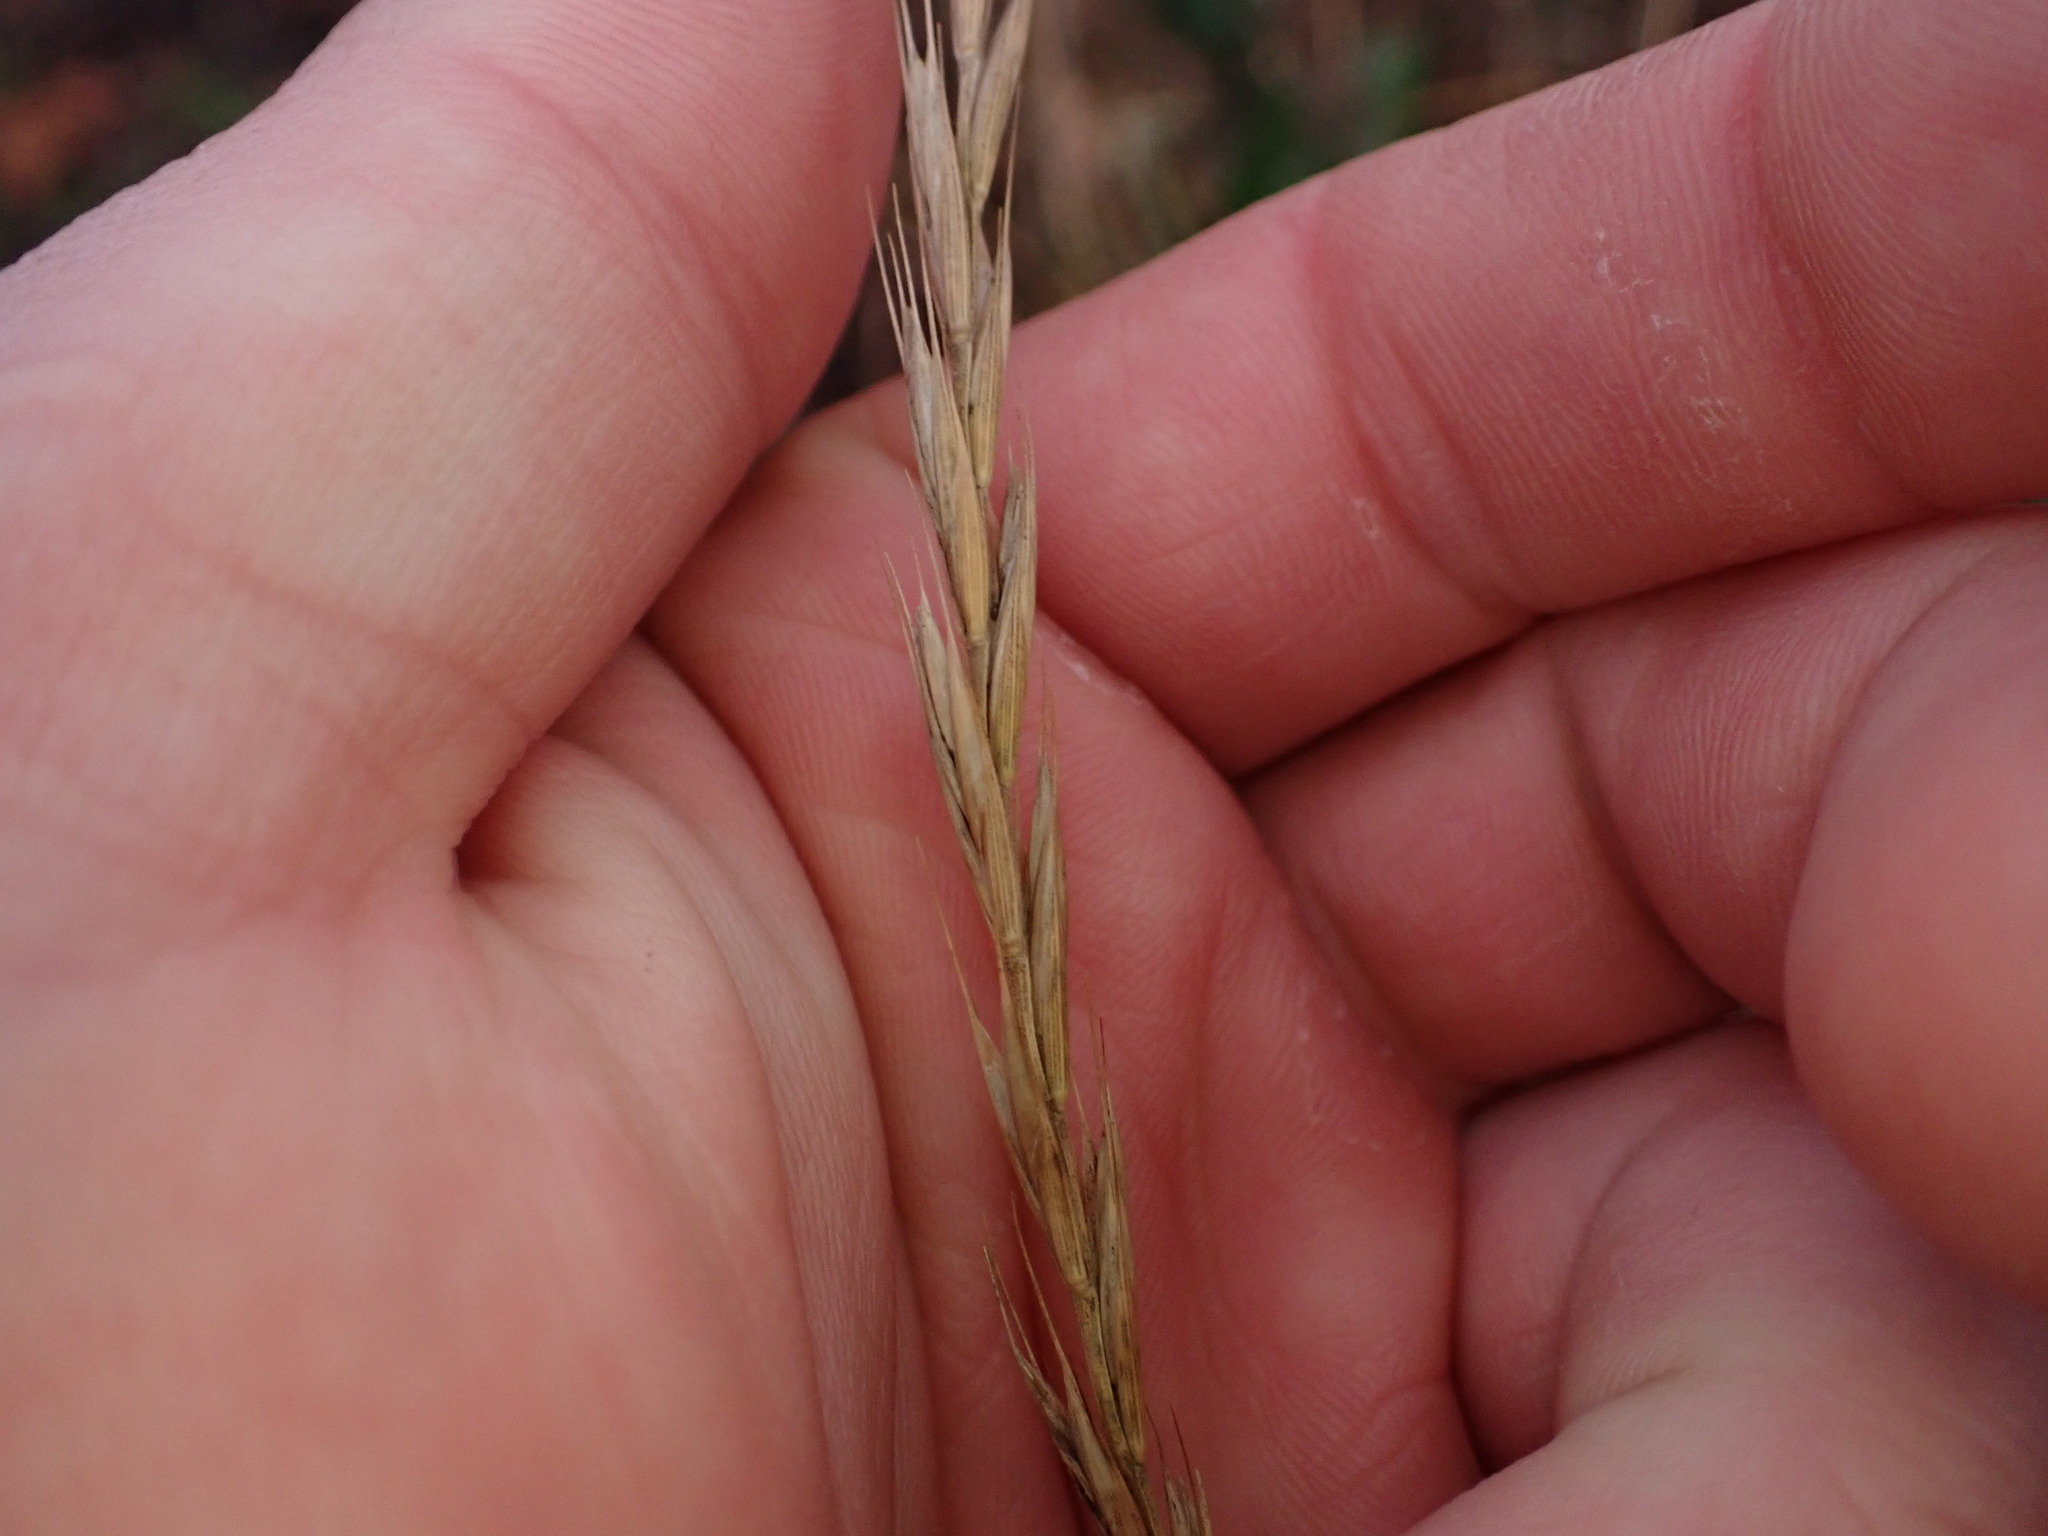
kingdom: Plantae
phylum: Tracheophyta
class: Liliopsida
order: Poales
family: Poaceae
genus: Elymus
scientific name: Elymus repens
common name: Quackgrass
